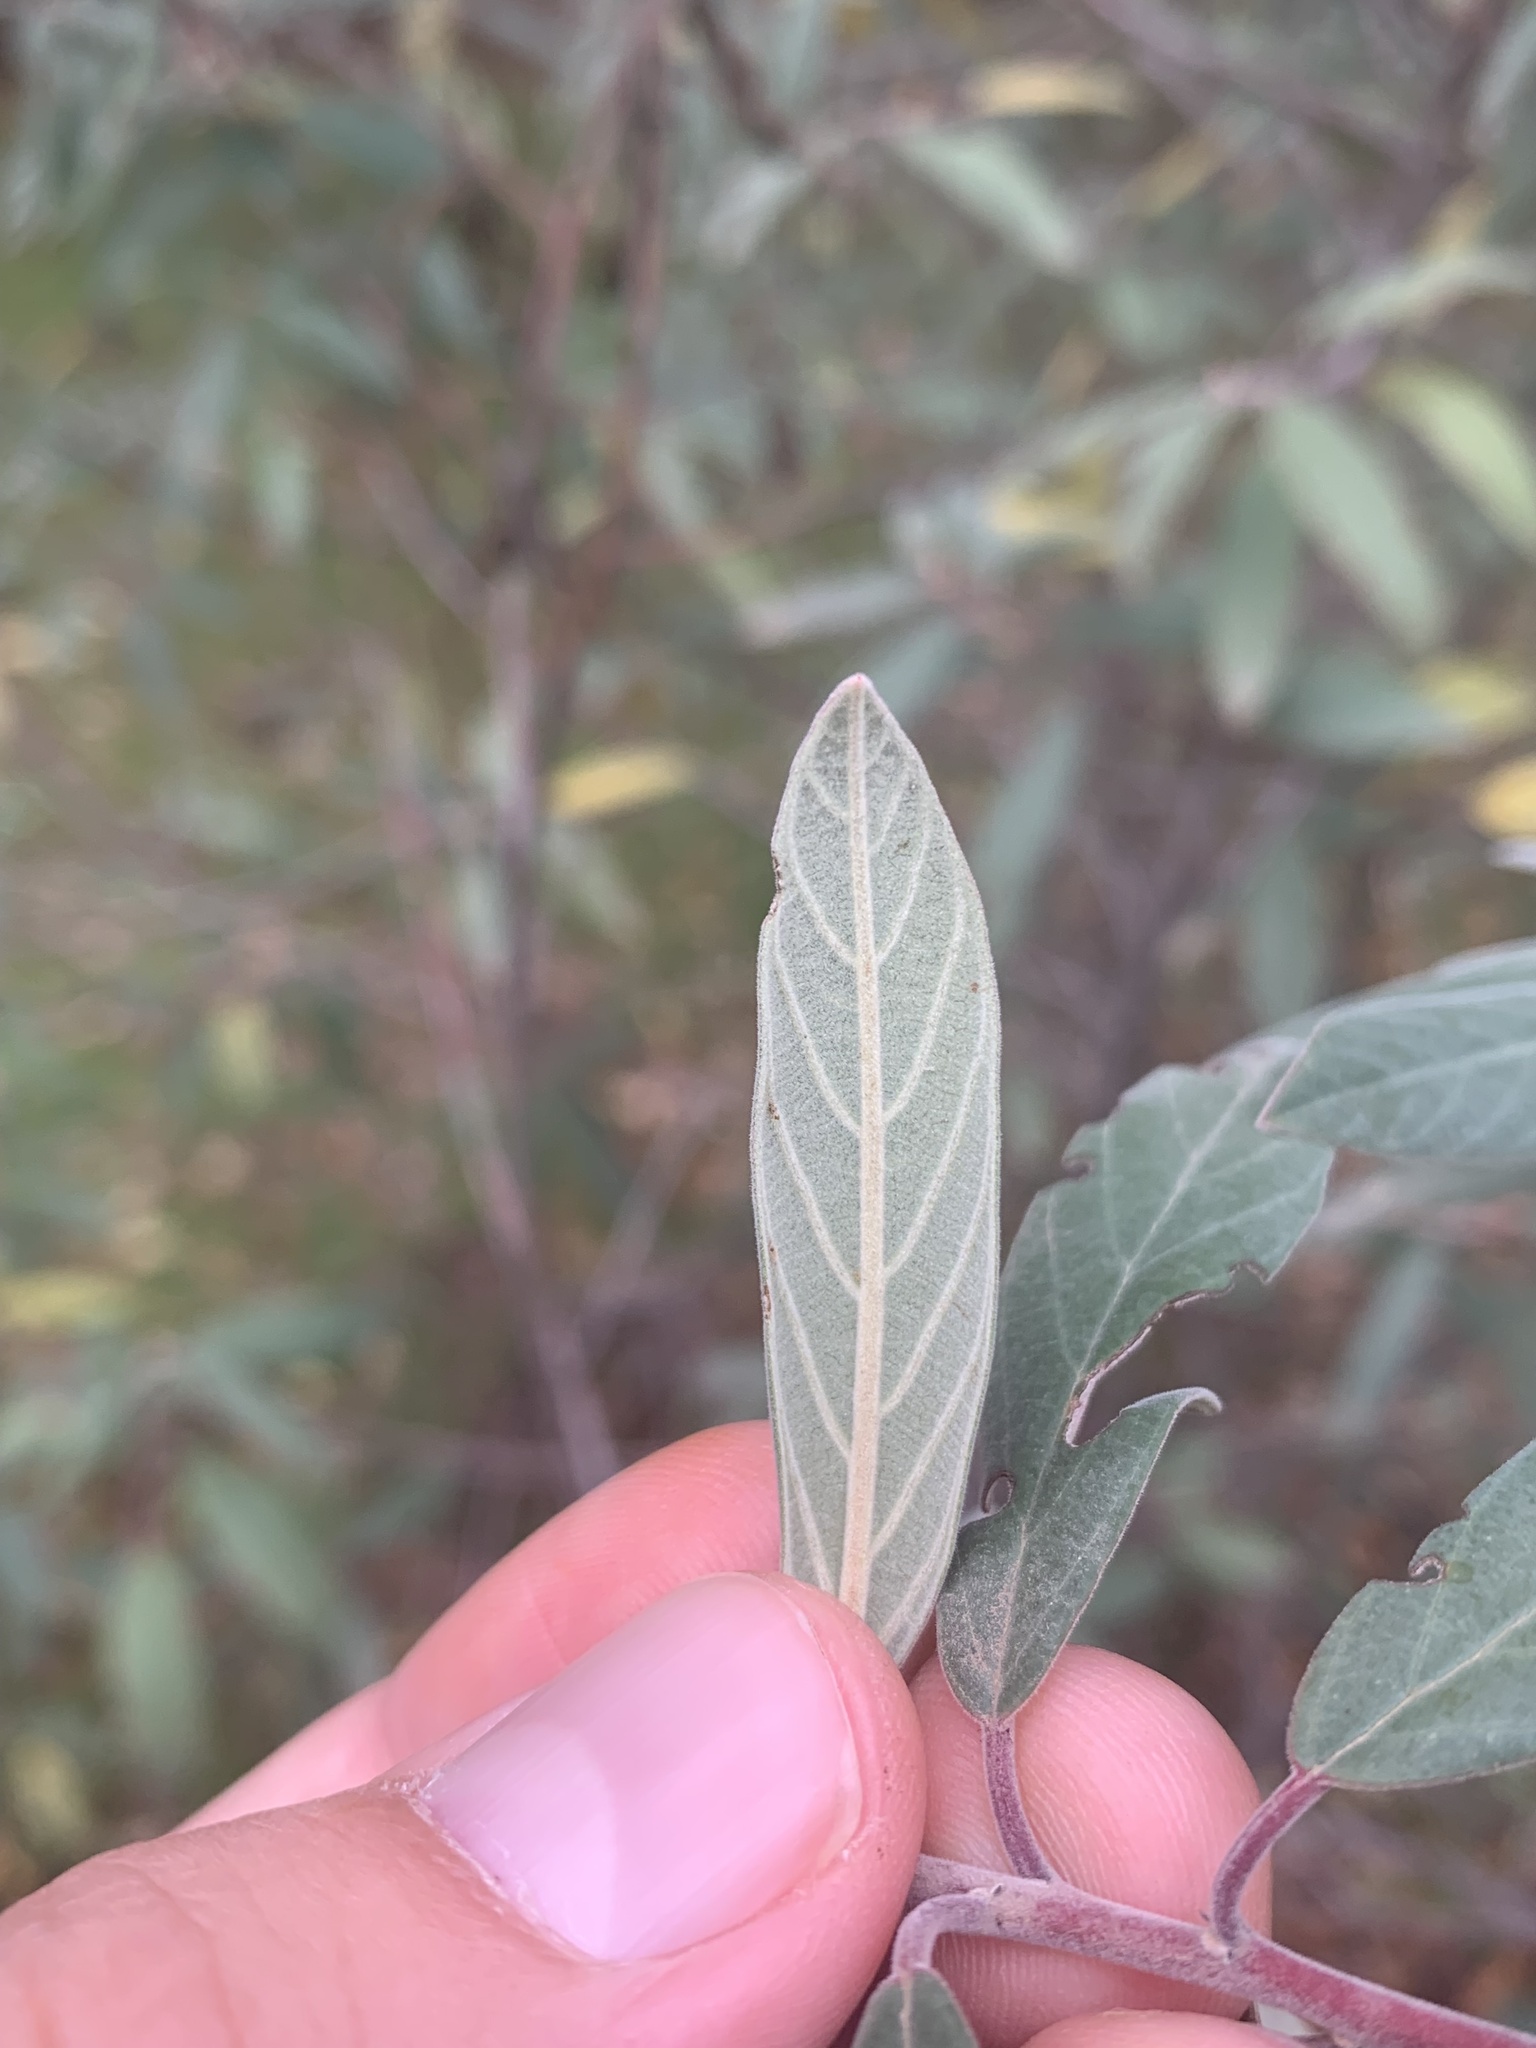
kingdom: Plantae
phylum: Tracheophyta
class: Magnoliopsida
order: Rosales
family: Rhamnaceae
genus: Frangula
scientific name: Frangula californica
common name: California buckthorn
